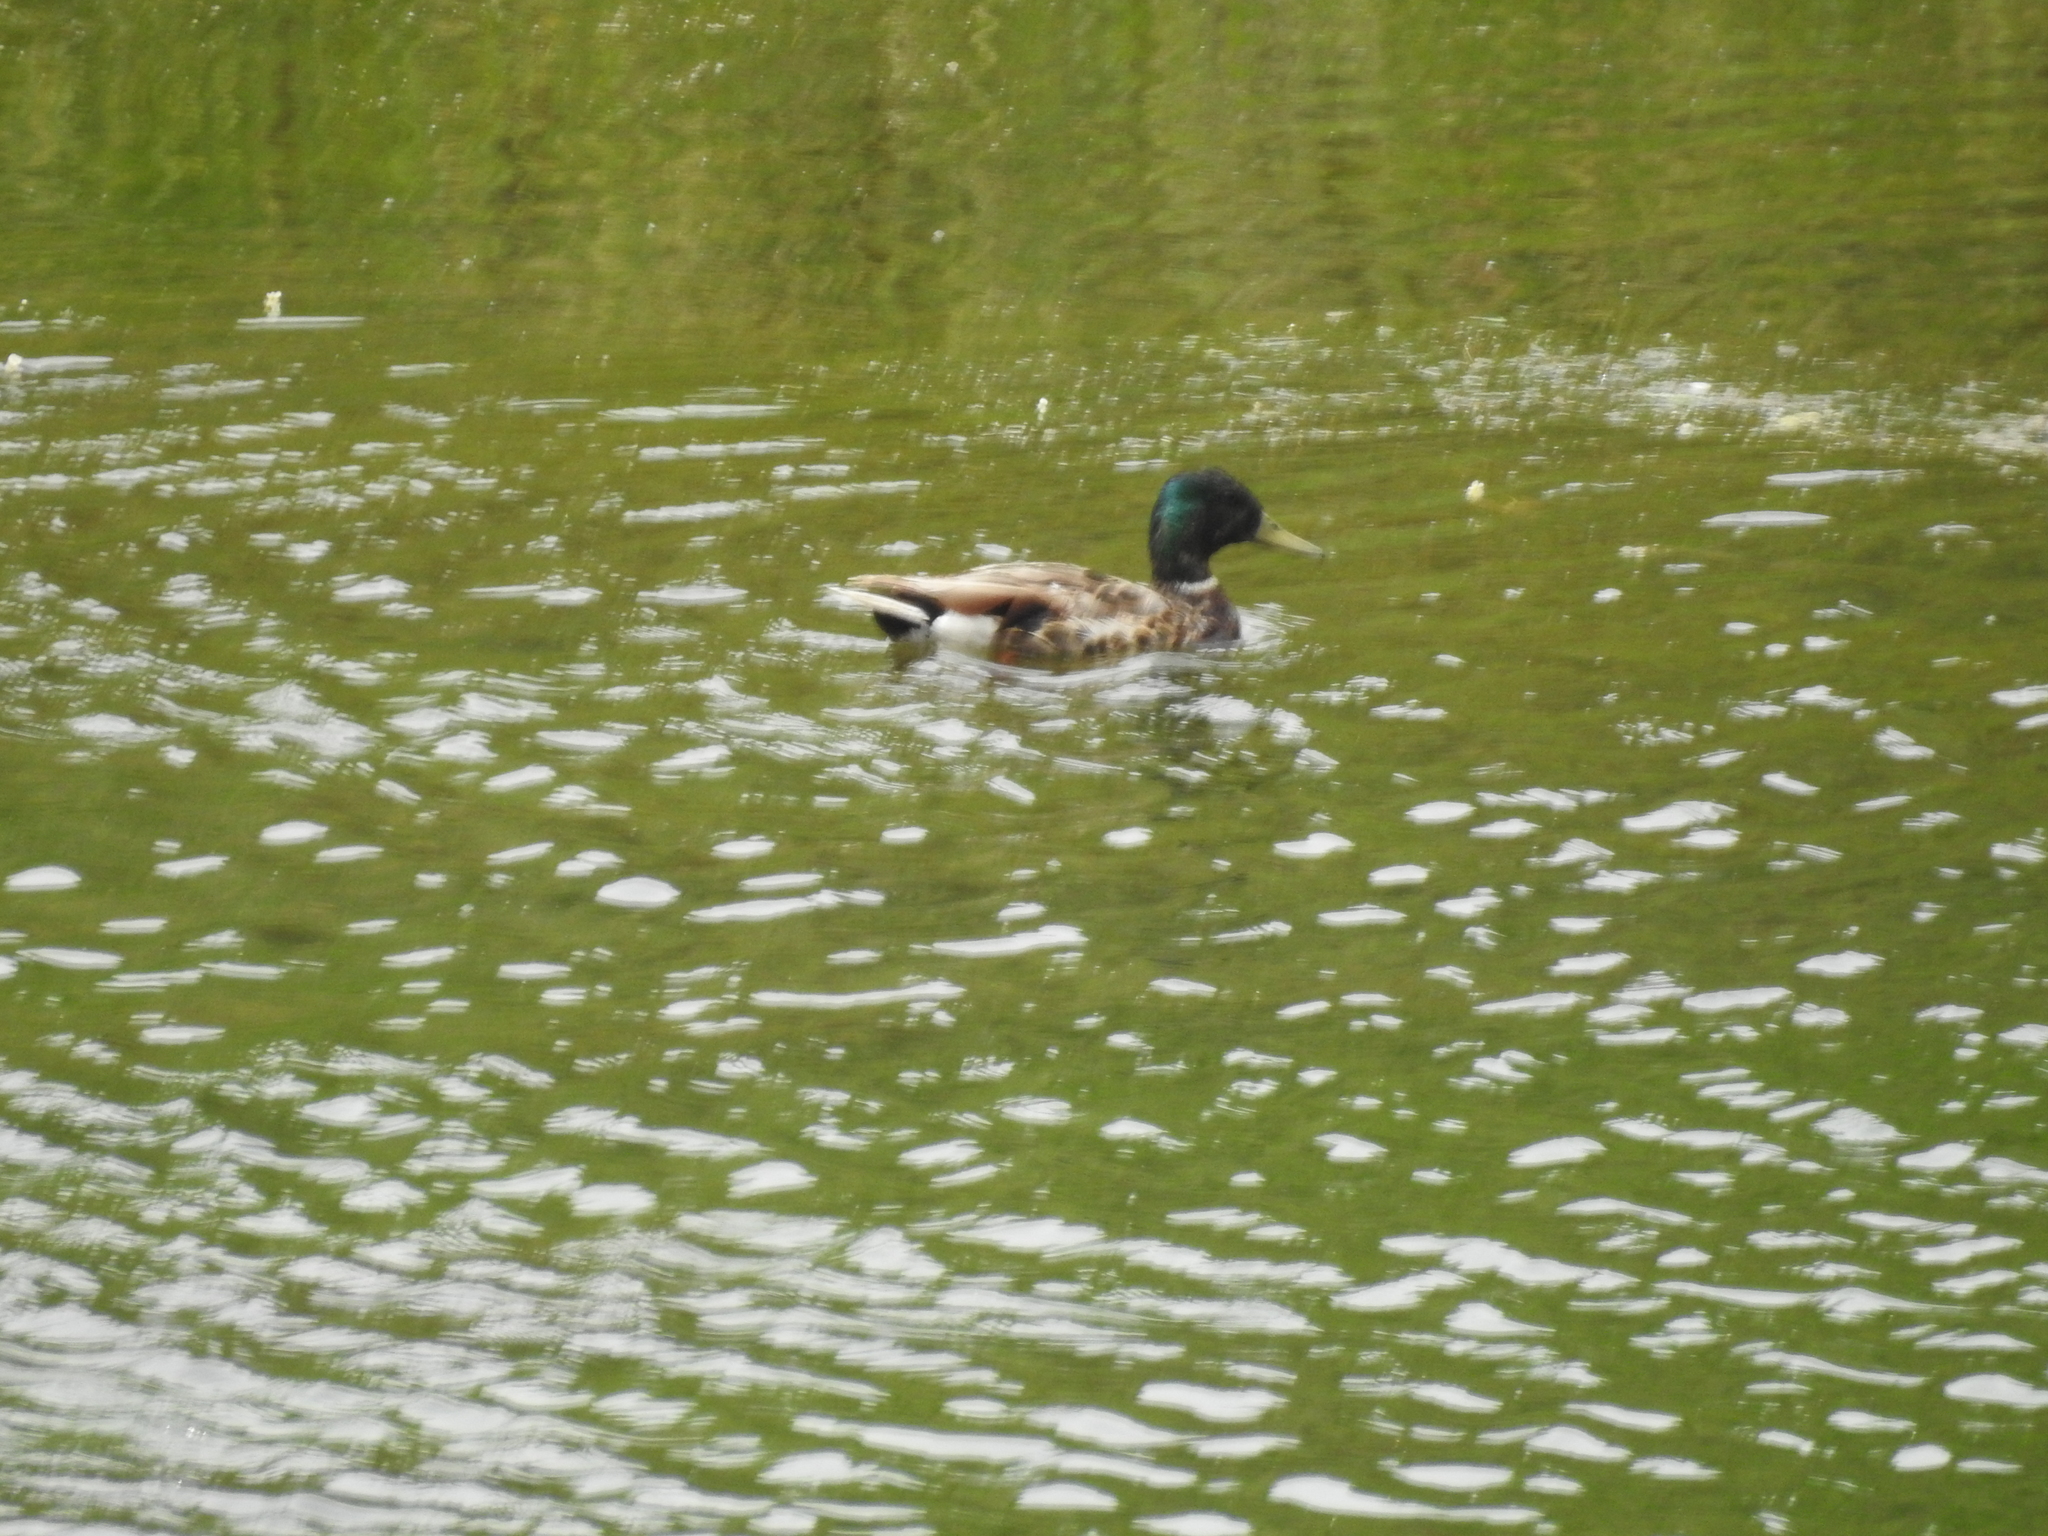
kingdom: Animalia
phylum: Chordata
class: Aves
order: Anseriformes
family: Anatidae
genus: Anas
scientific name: Anas platyrhynchos
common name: Mallard
